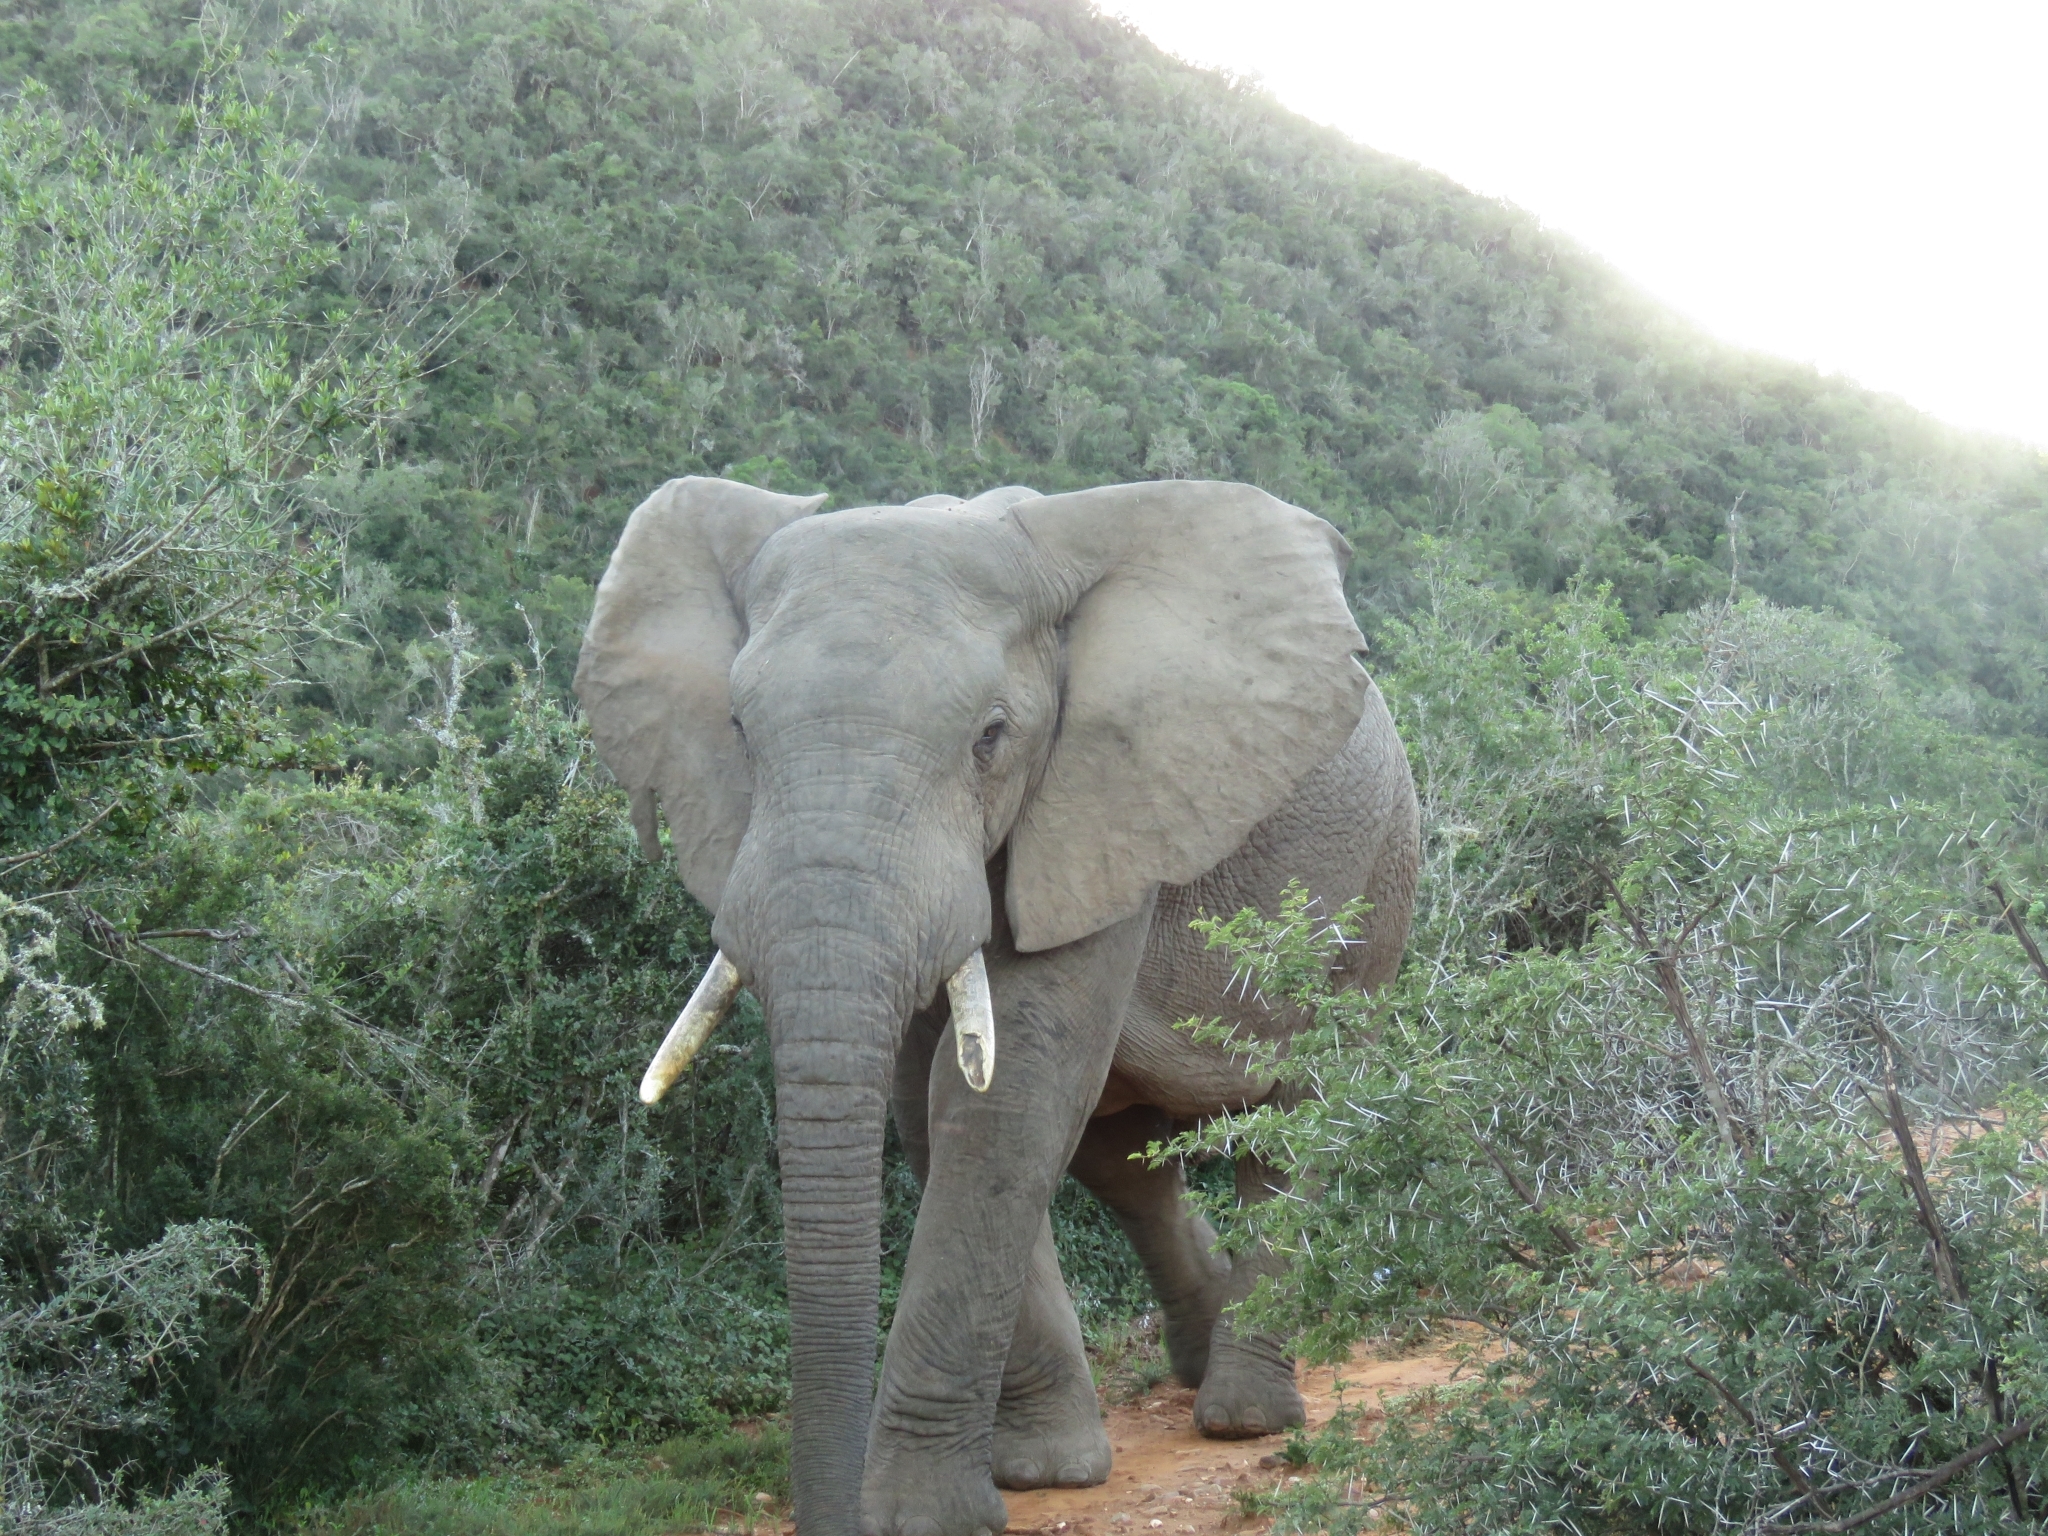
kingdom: Animalia
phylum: Chordata
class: Mammalia
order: Proboscidea
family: Elephantidae
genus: Loxodonta
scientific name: Loxodonta africana
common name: African elephant
